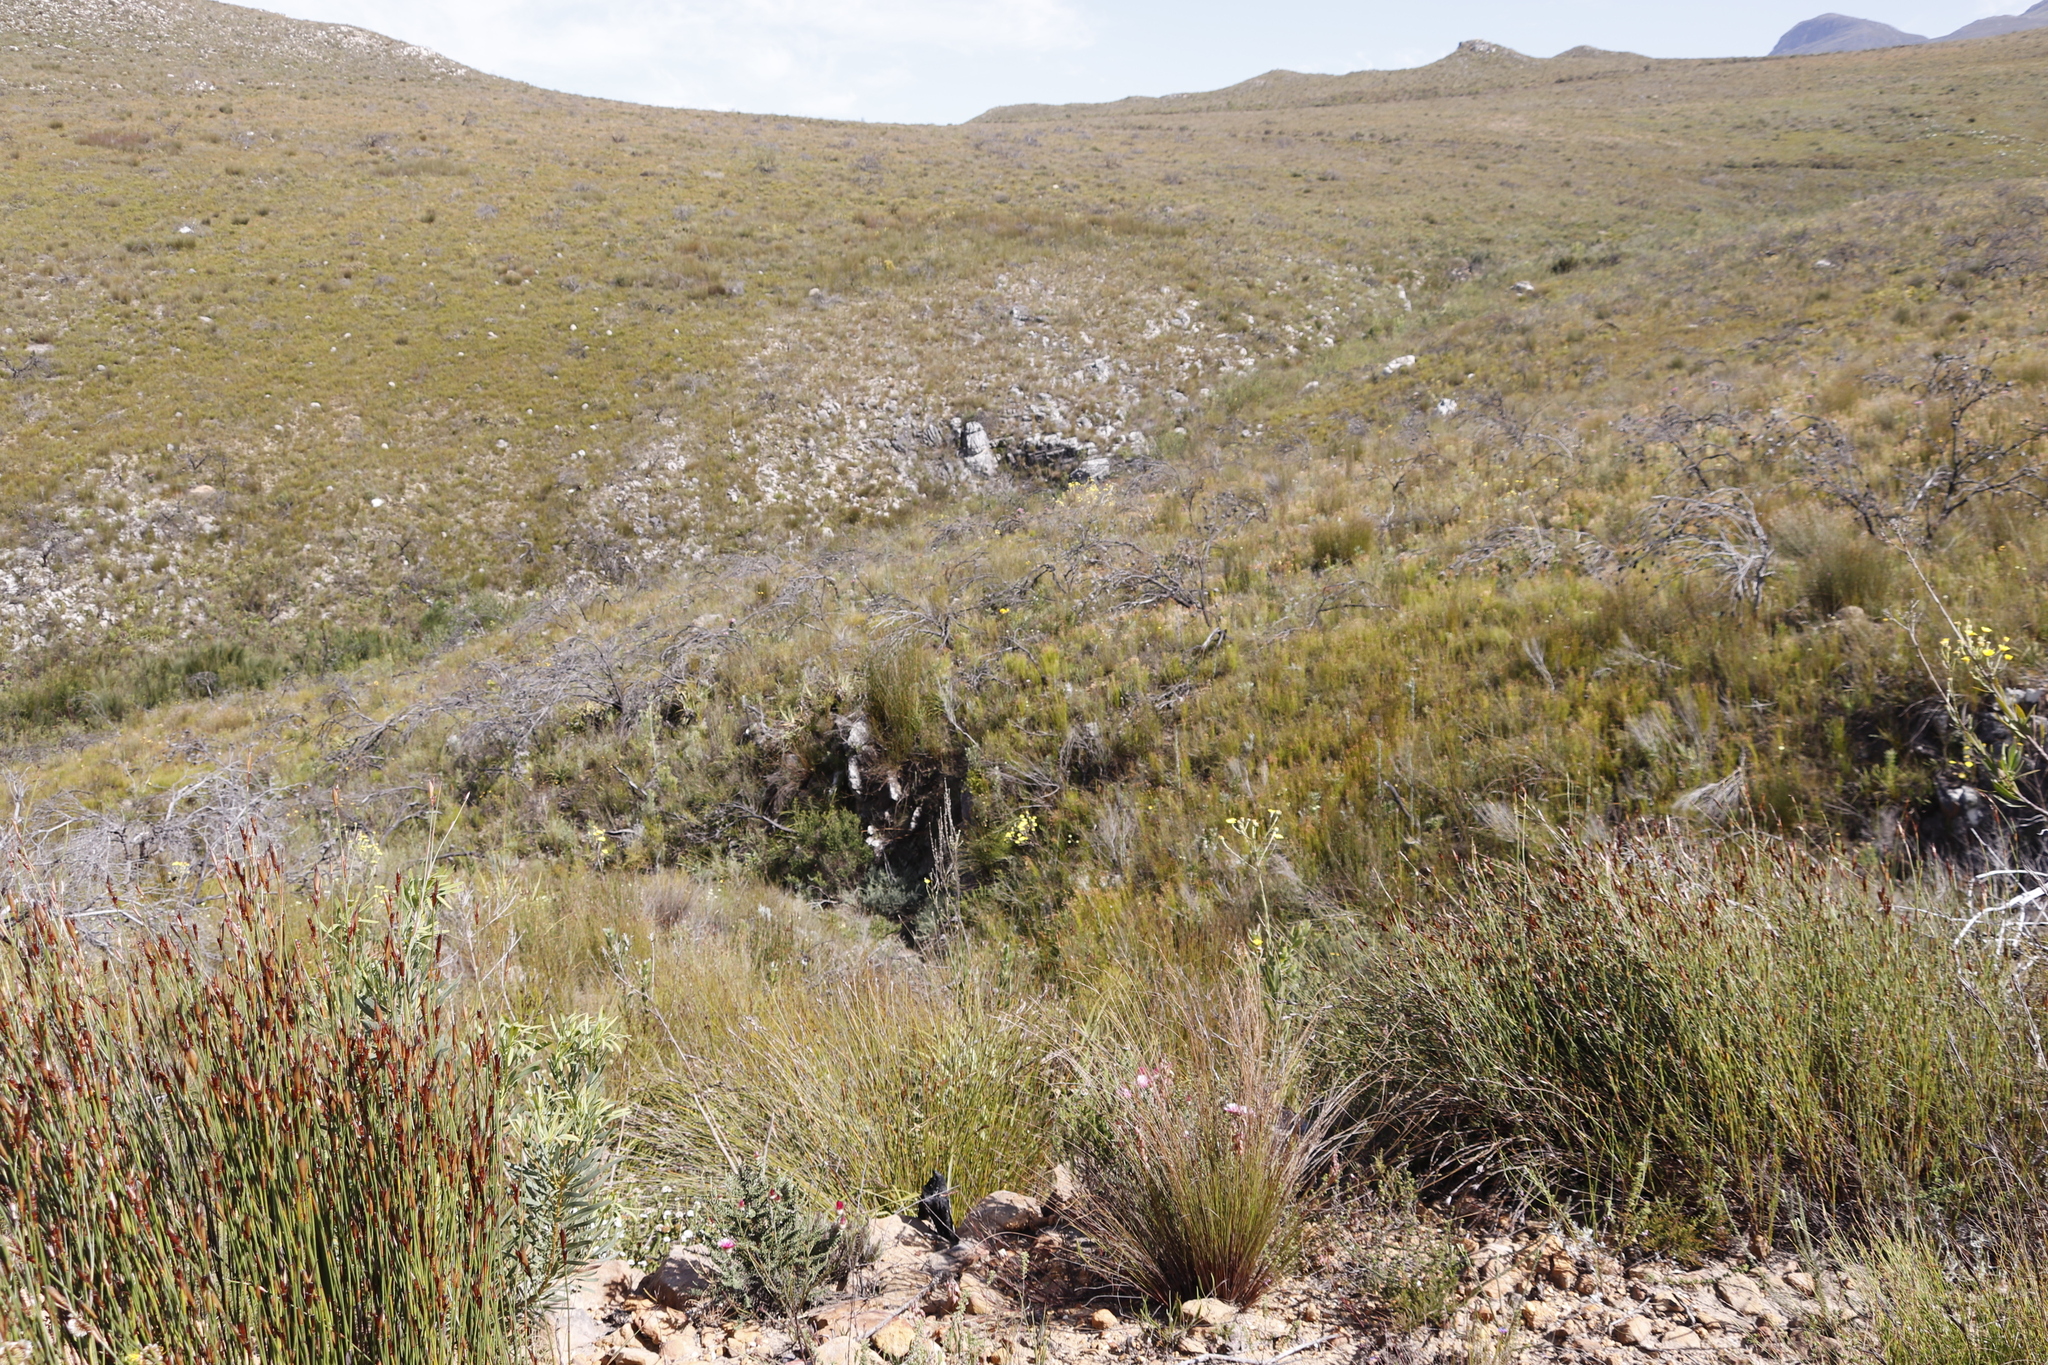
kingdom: Plantae
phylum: Tracheophyta
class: Magnoliopsida
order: Proteales
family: Proteaceae
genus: Protea
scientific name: Protea repens
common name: Sugarbush
